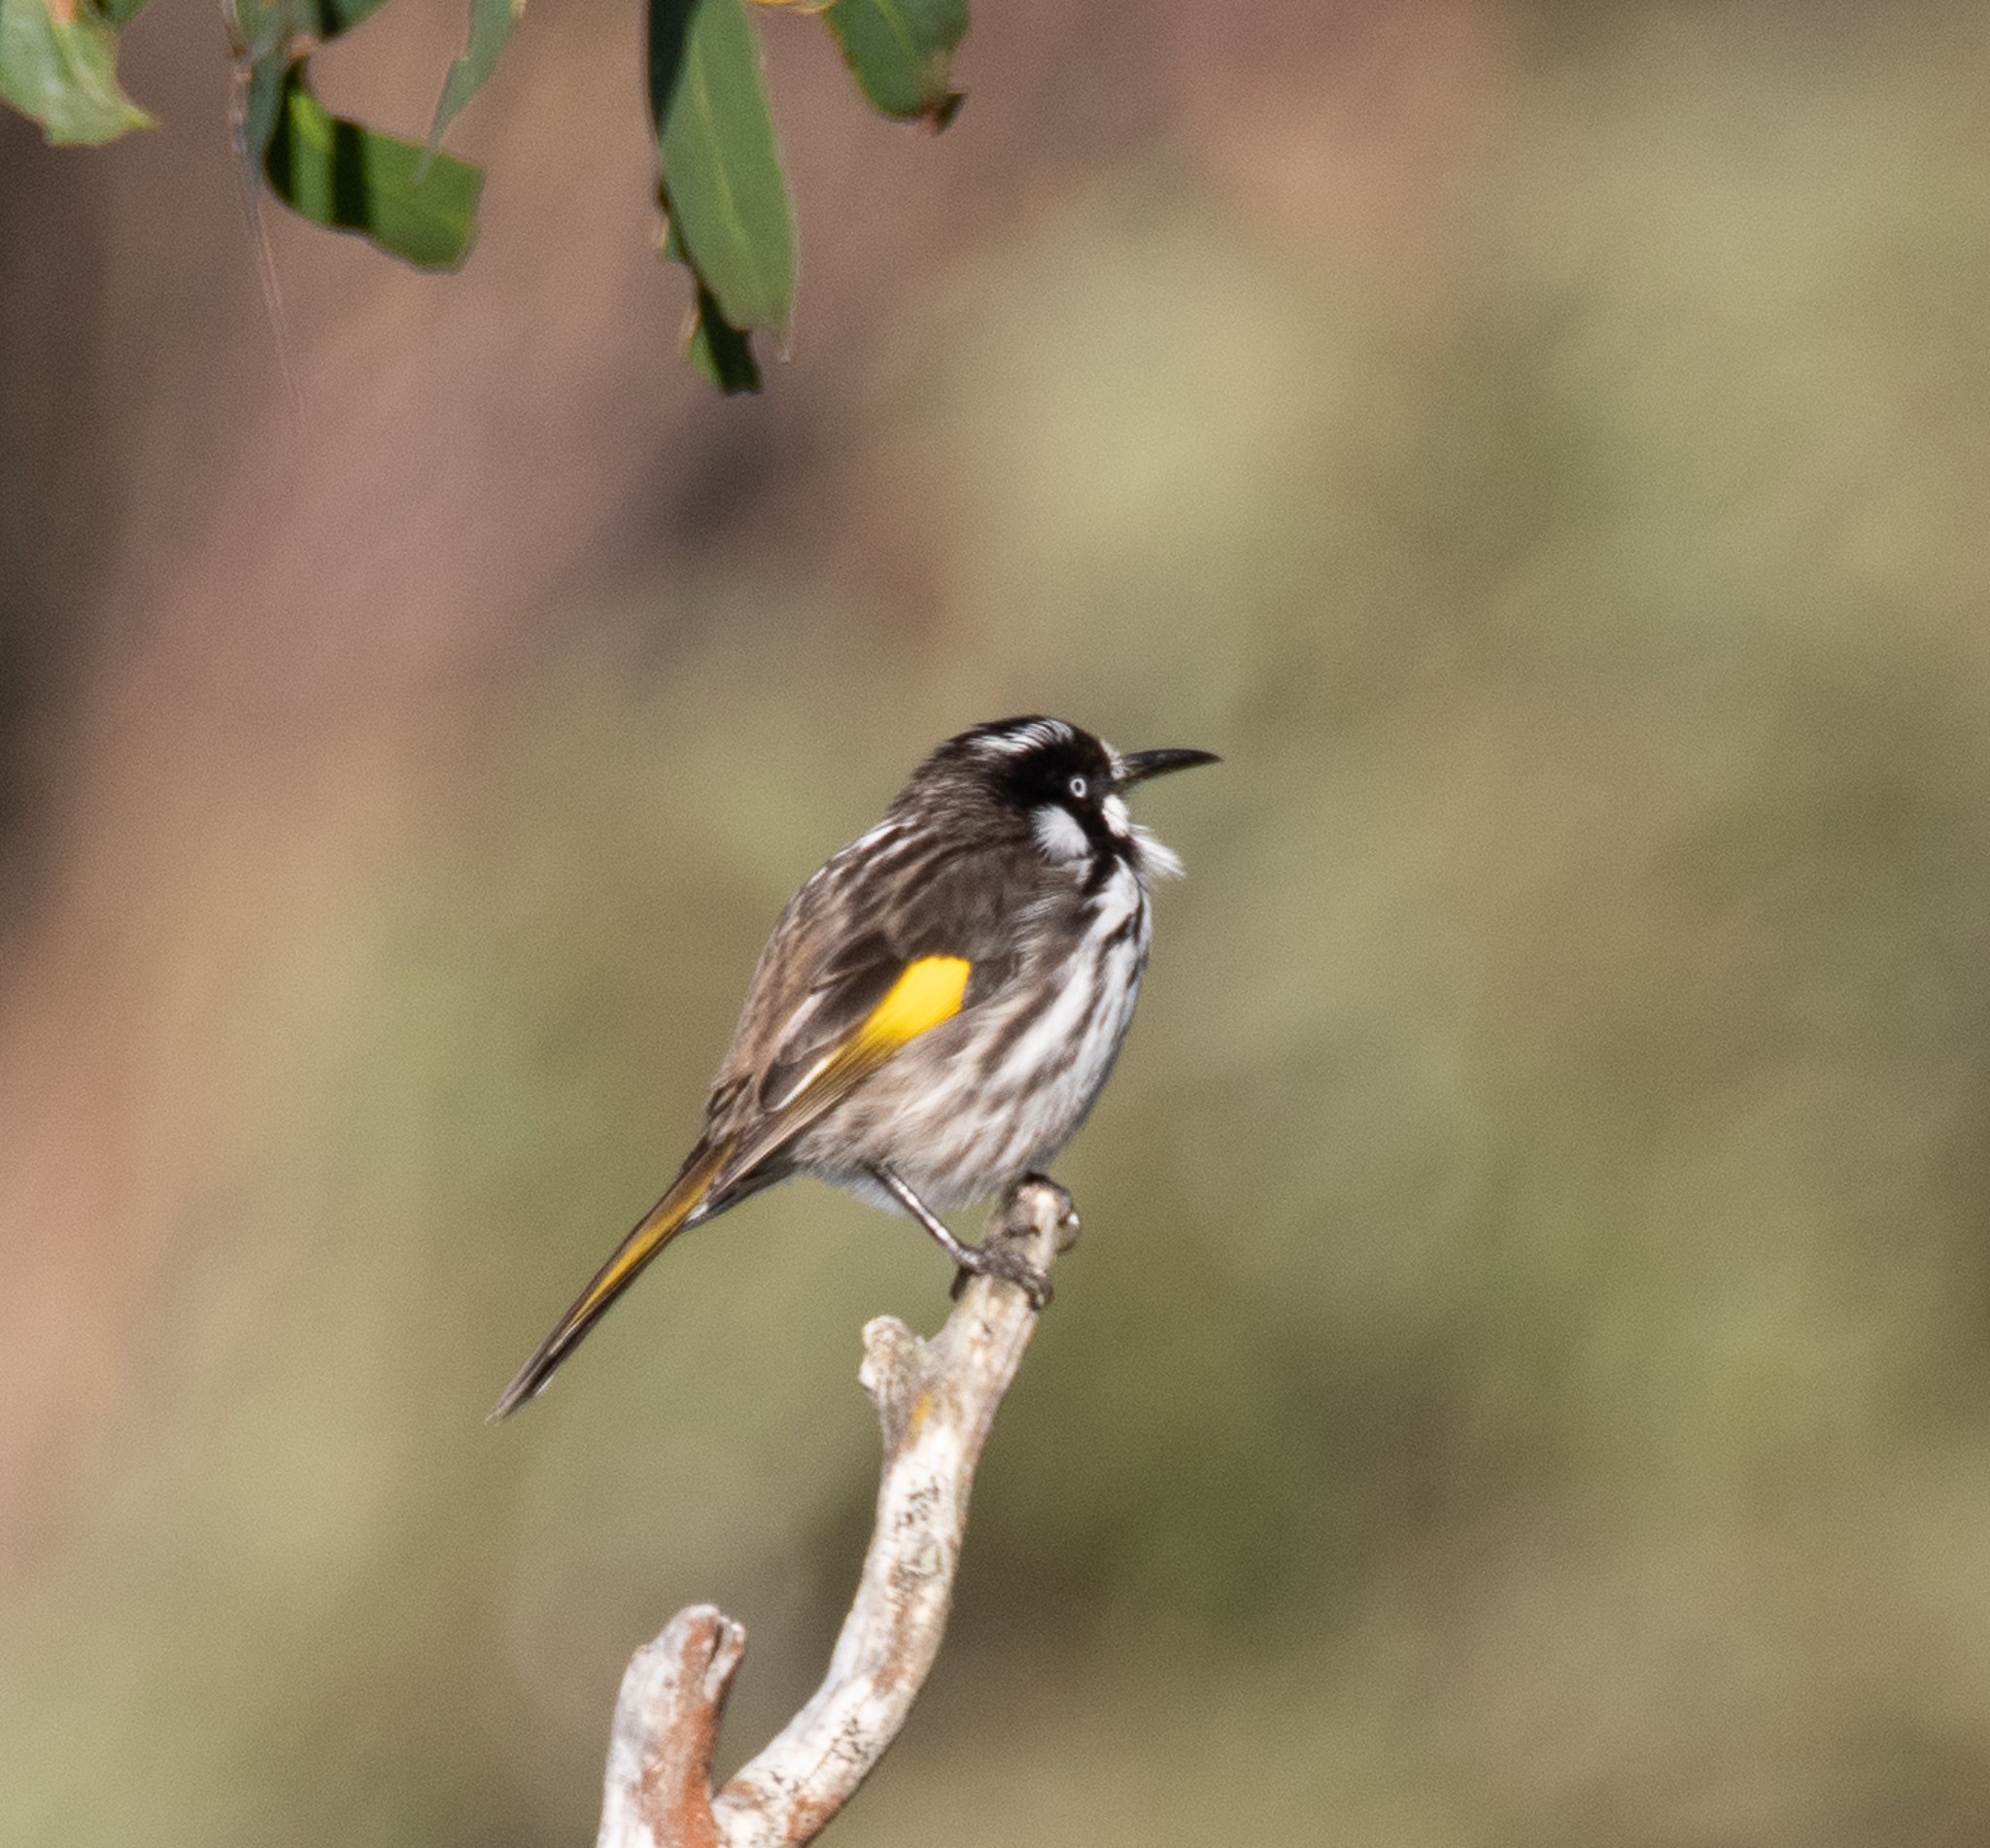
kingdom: Animalia
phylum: Chordata
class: Aves
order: Passeriformes
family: Meliphagidae
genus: Phylidonyris
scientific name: Phylidonyris novaehollandiae
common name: New holland honeyeater
